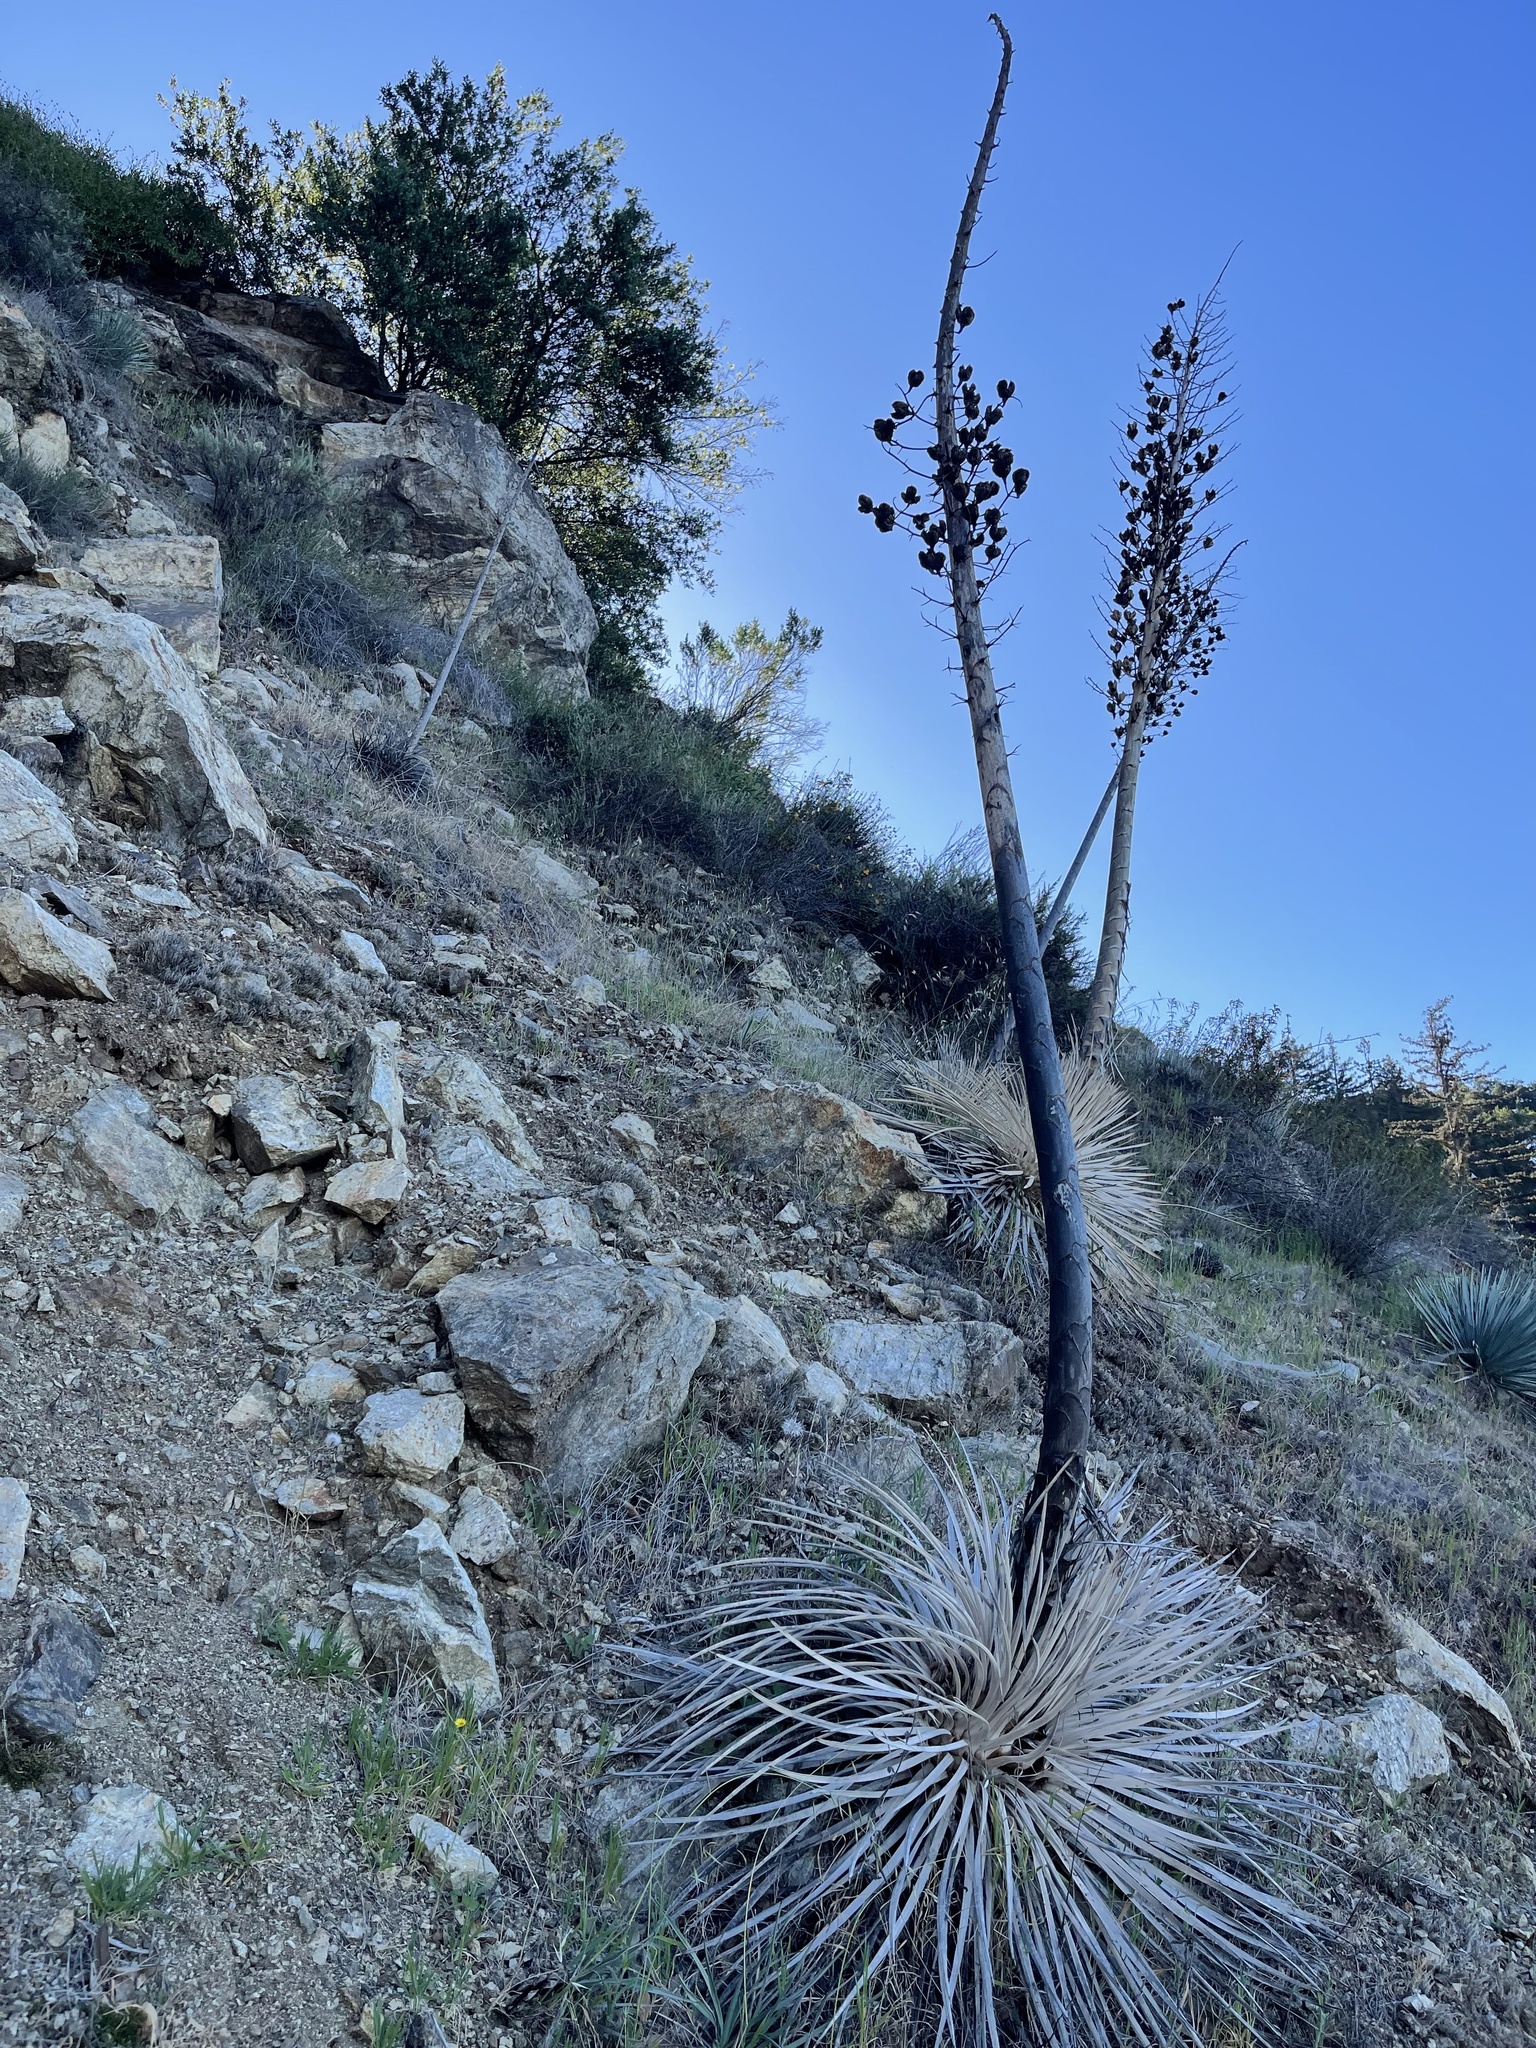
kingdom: Plantae
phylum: Tracheophyta
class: Liliopsida
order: Asparagales
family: Asparagaceae
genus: Hesperoyucca
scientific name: Hesperoyucca whipplei
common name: Our lord's-candle
